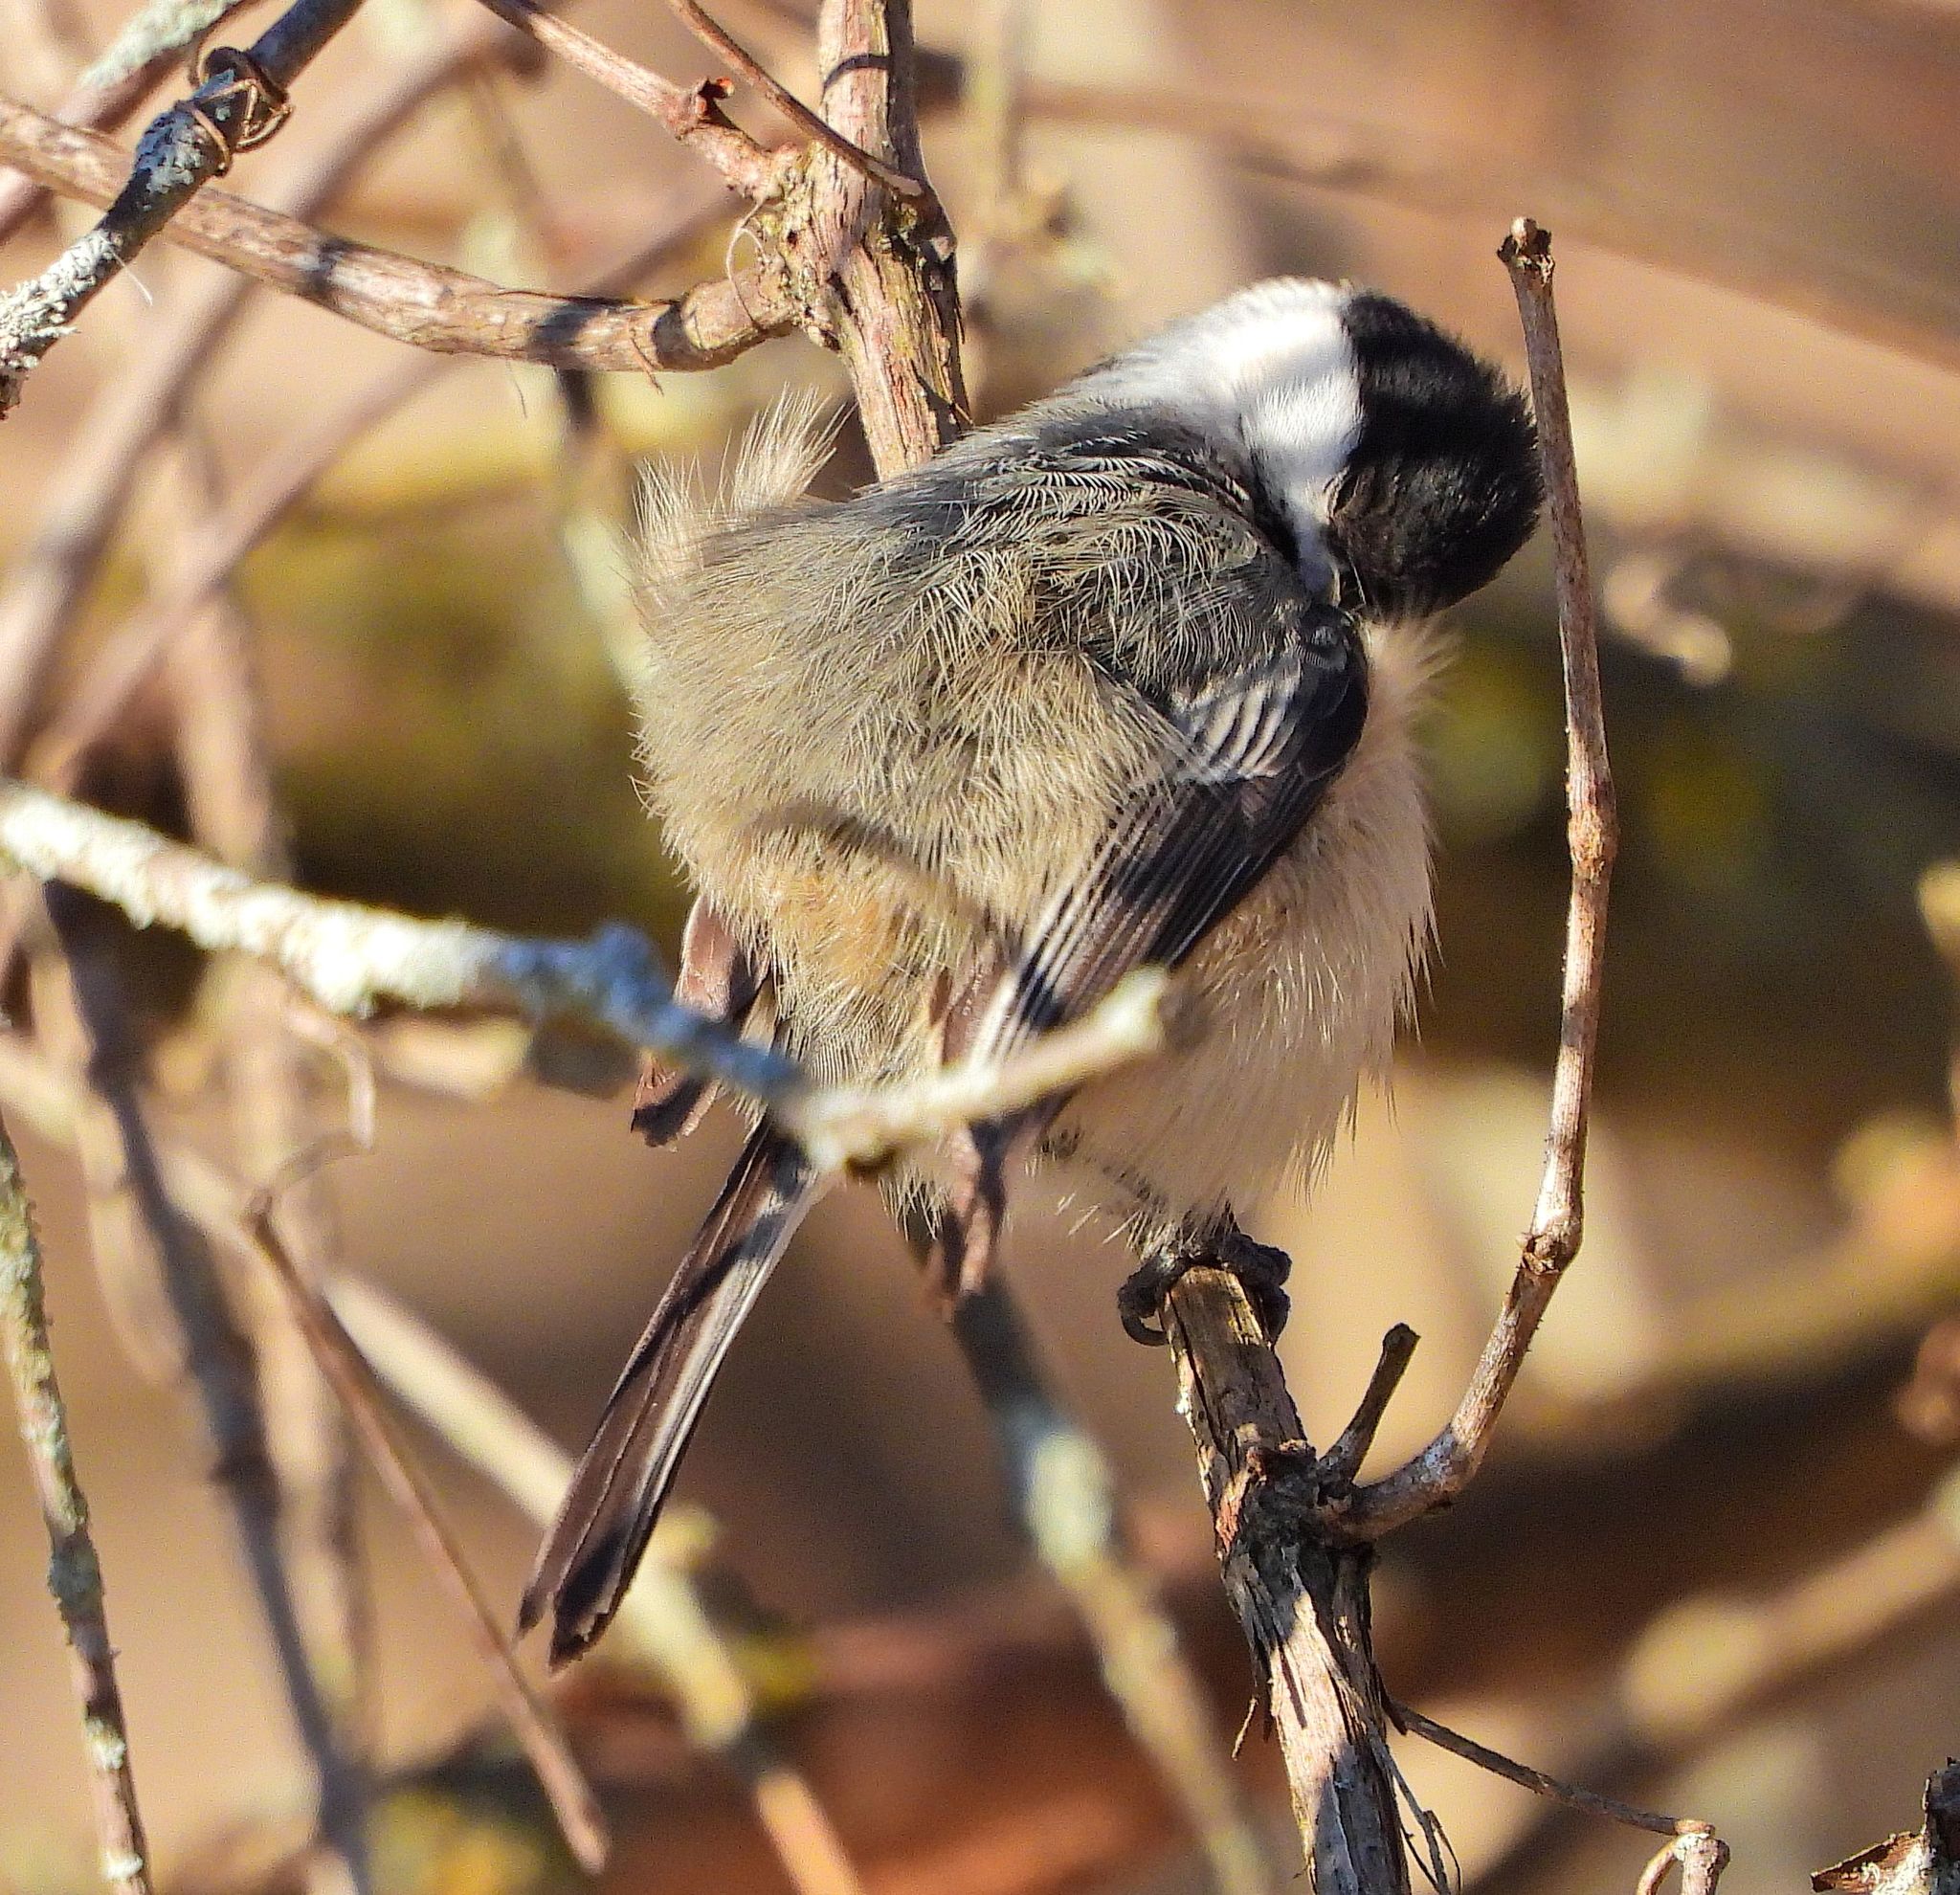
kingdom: Animalia
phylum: Chordata
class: Aves
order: Passeriformes
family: Paridae
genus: Poecile
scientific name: Poecile atricapillus
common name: Black-capped chickadee
